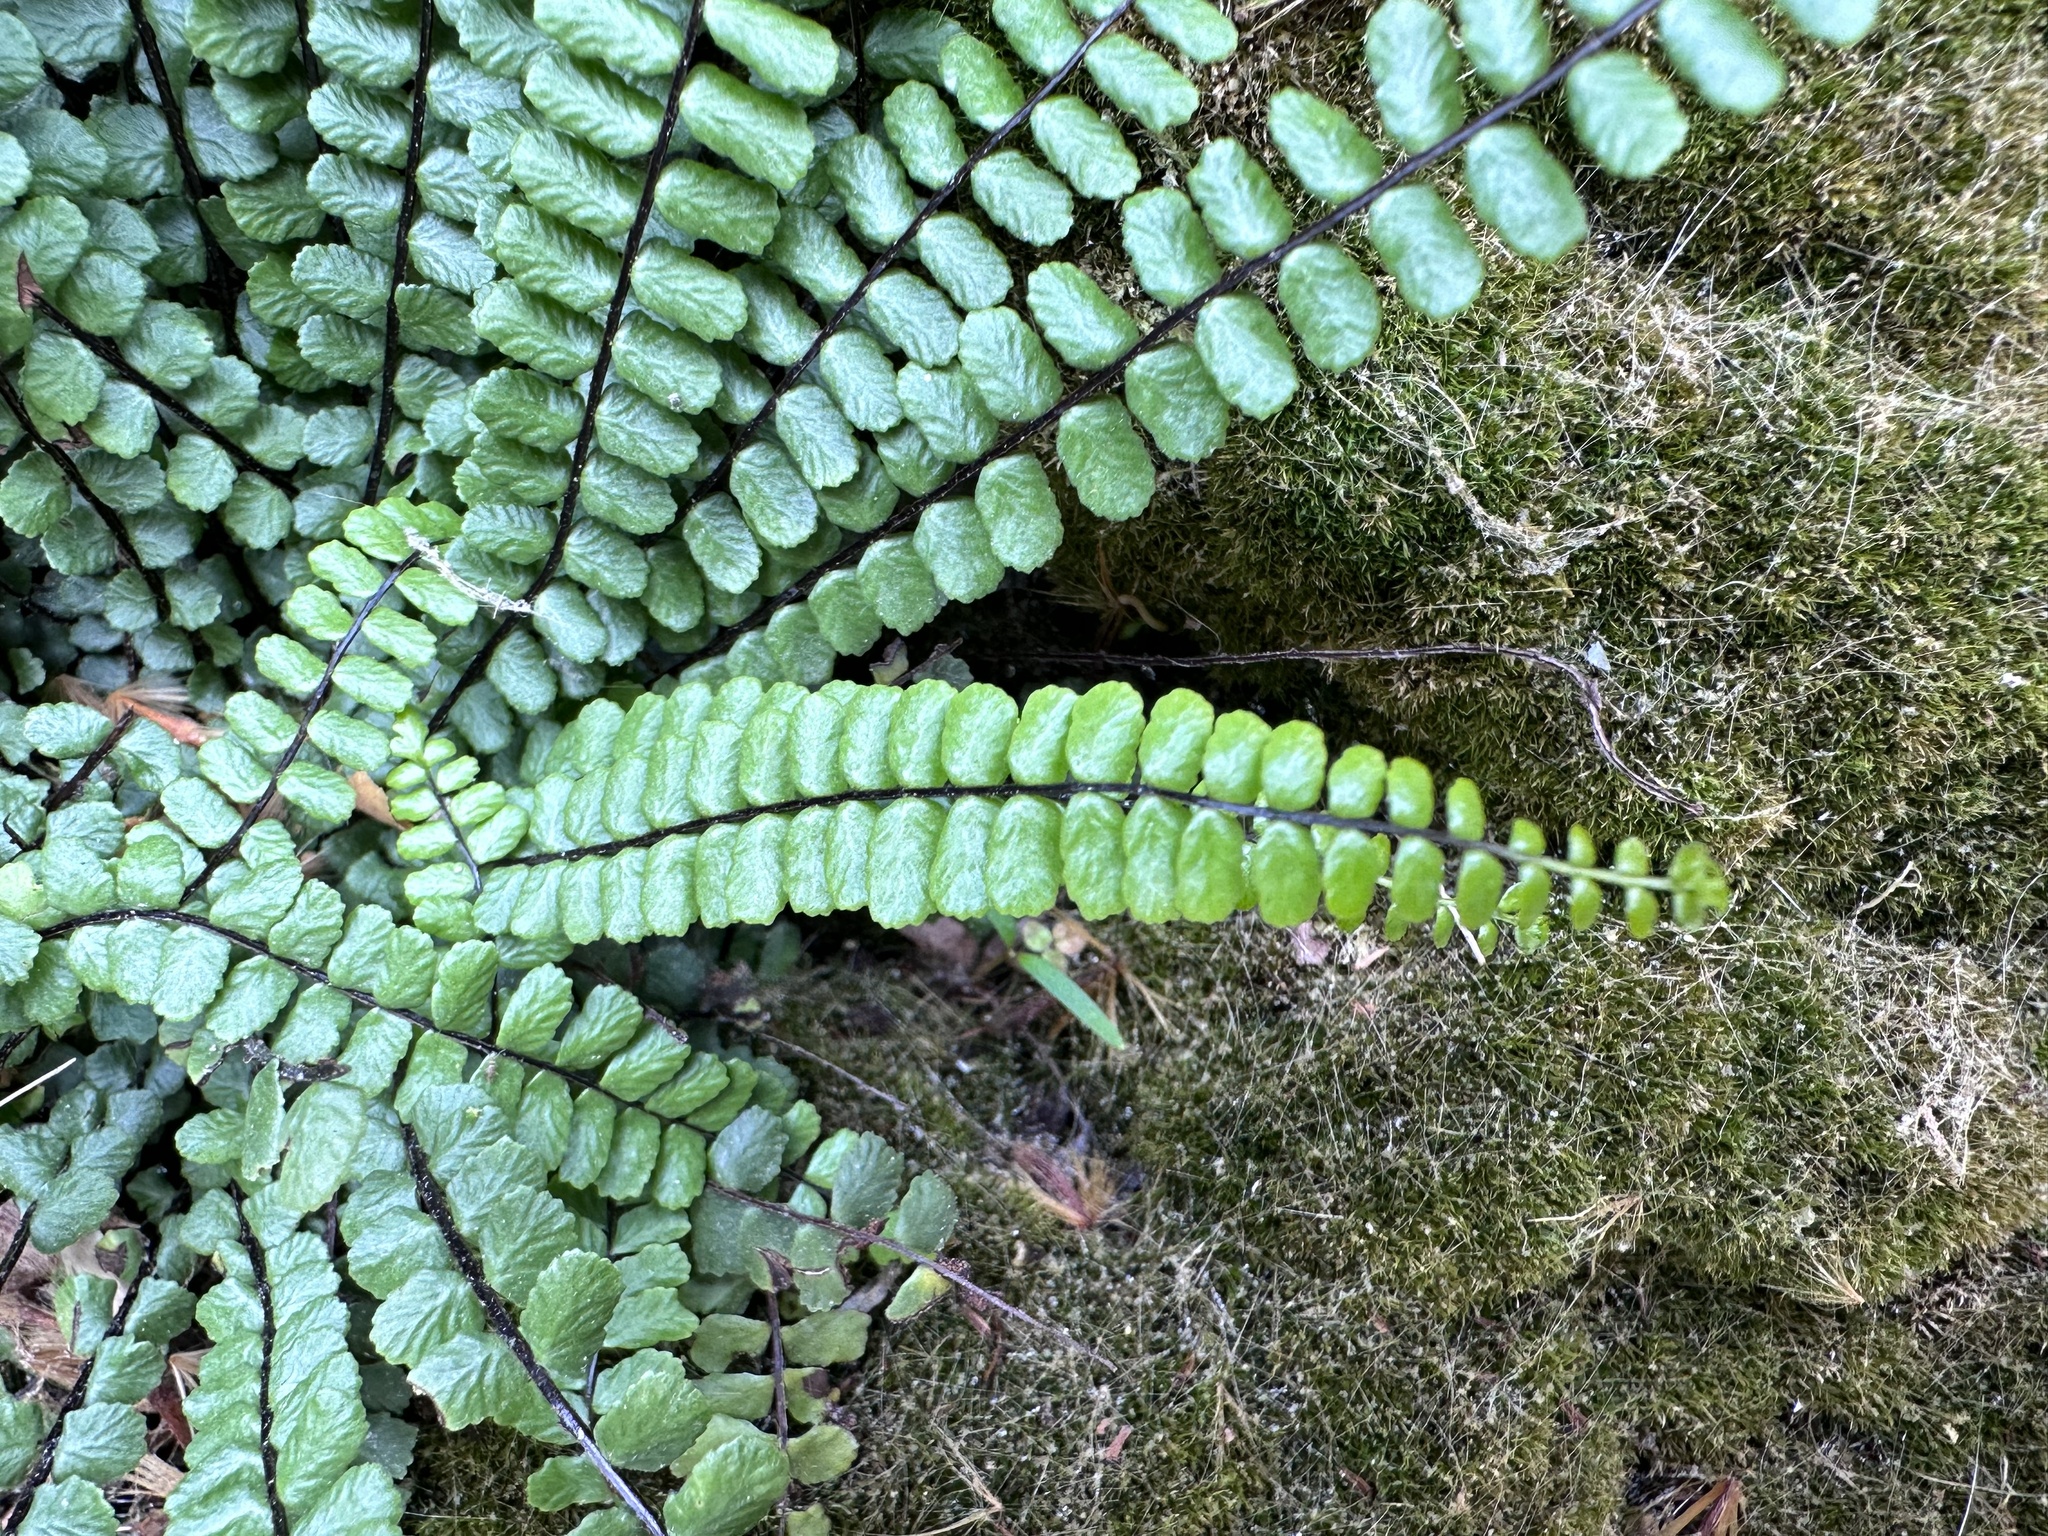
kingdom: Plantae
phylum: Tracheophyta
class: Polypodiopsida
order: Polypodiales
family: Aspleniaceae
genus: Asplenium
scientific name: Asplenium trichomanes
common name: Maidenhair spleenwort
